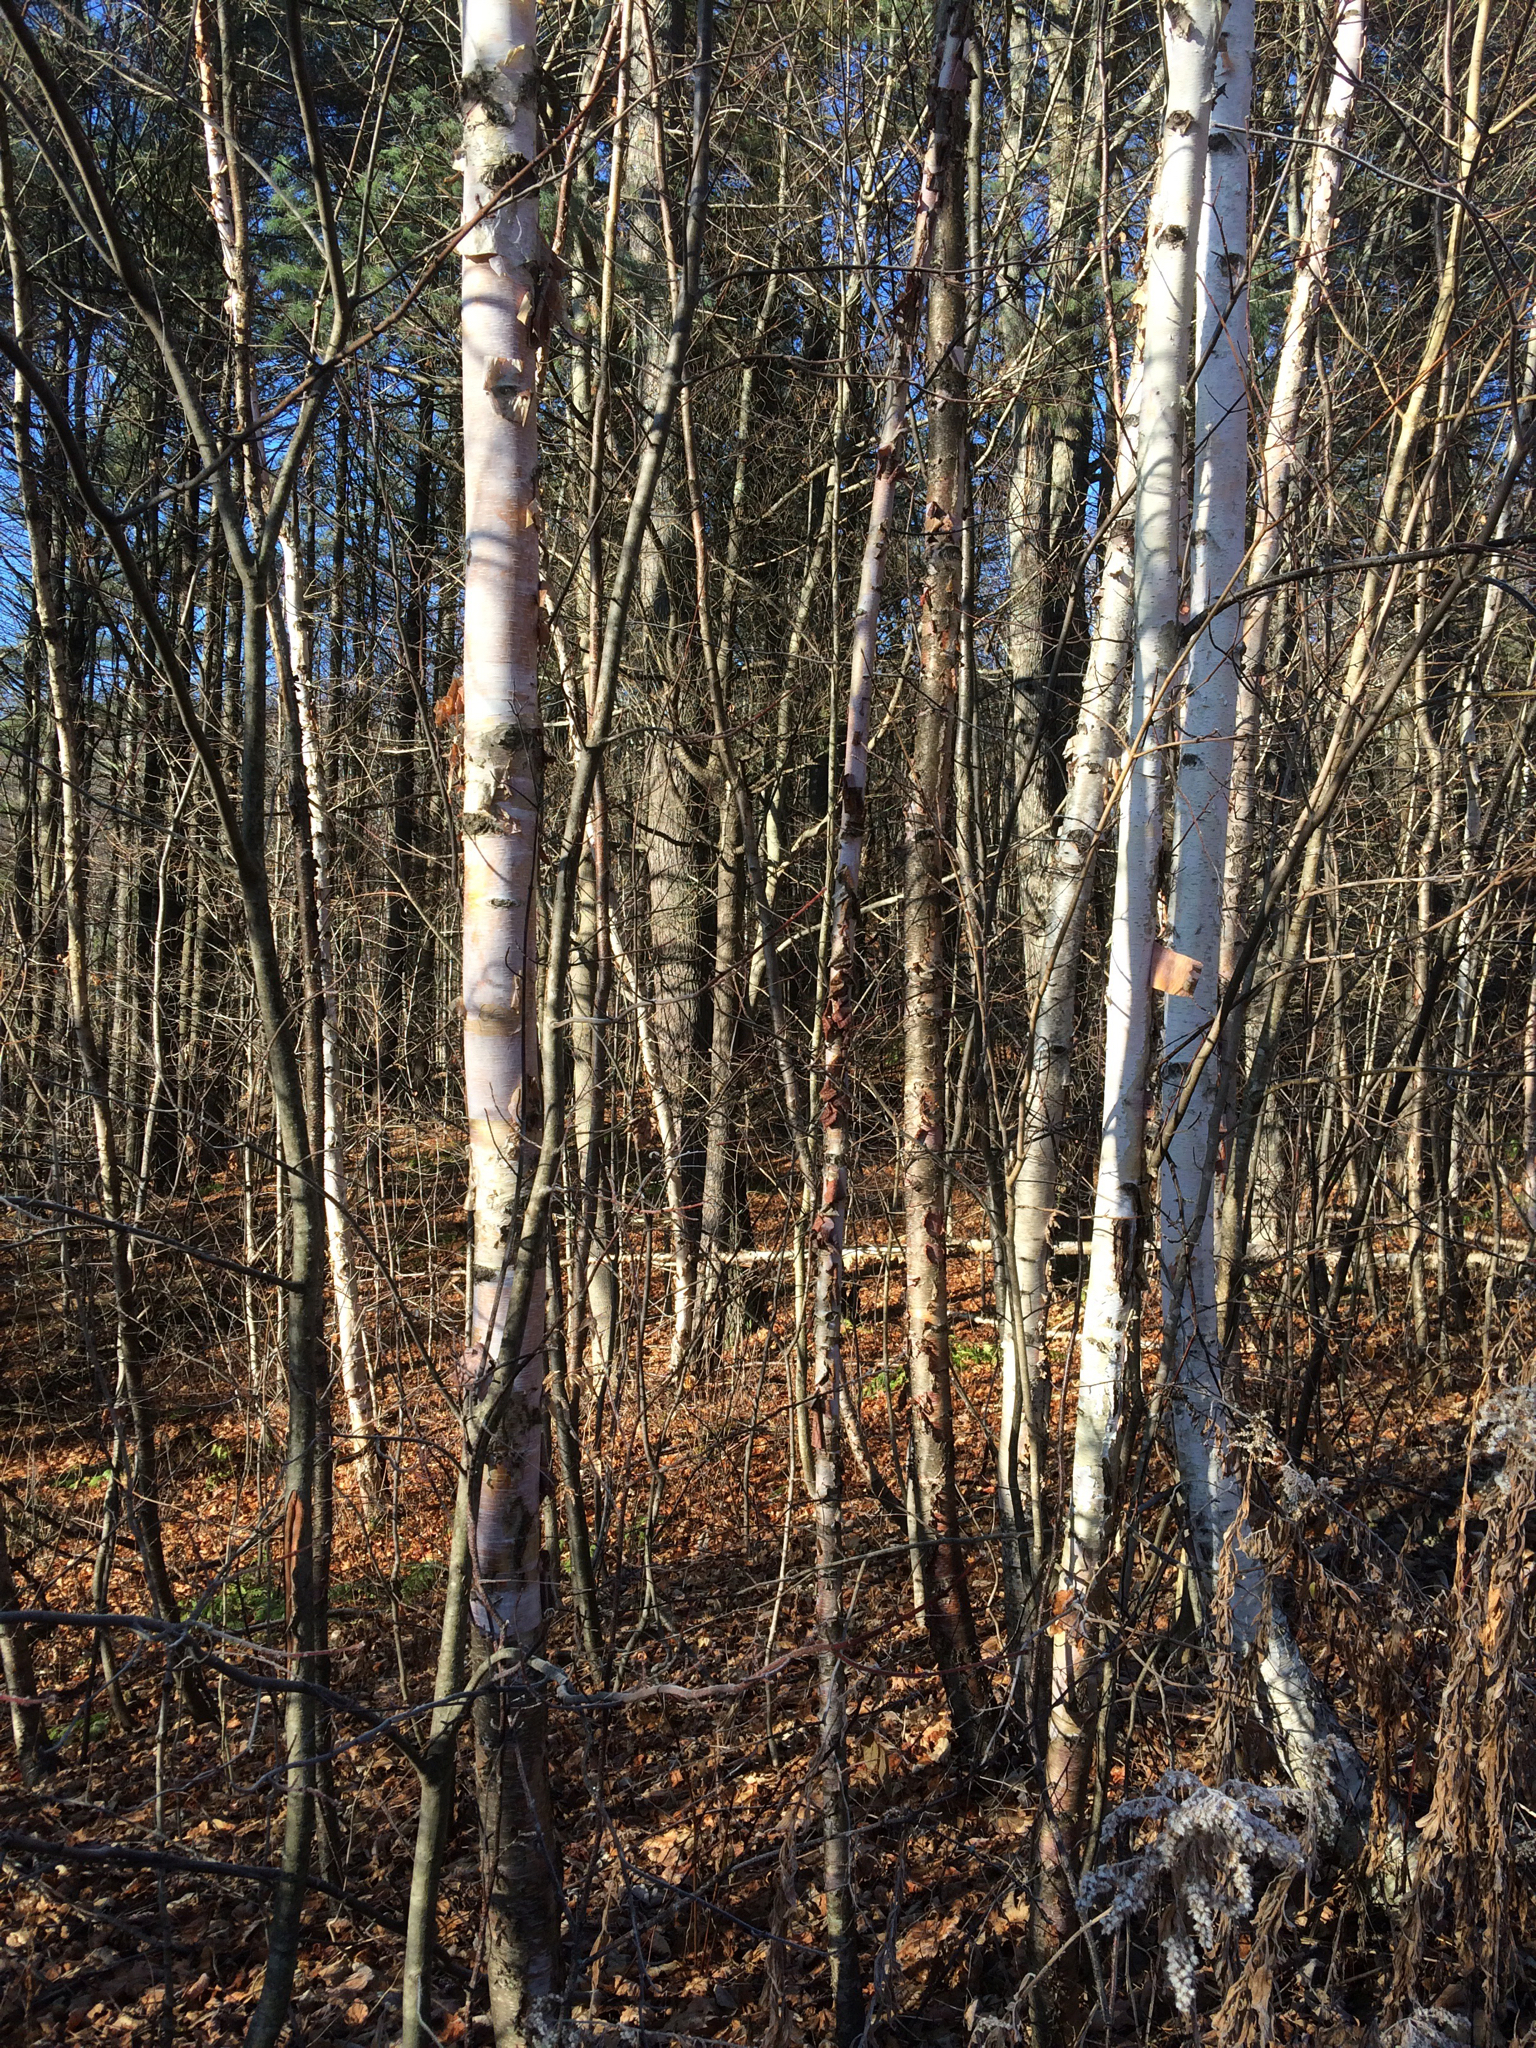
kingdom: Plantae
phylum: Tracheophyta
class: Magnoliopsida
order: Fagales
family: Betulaceae
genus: Betula
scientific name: Betula papyrifera
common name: Paper birch
